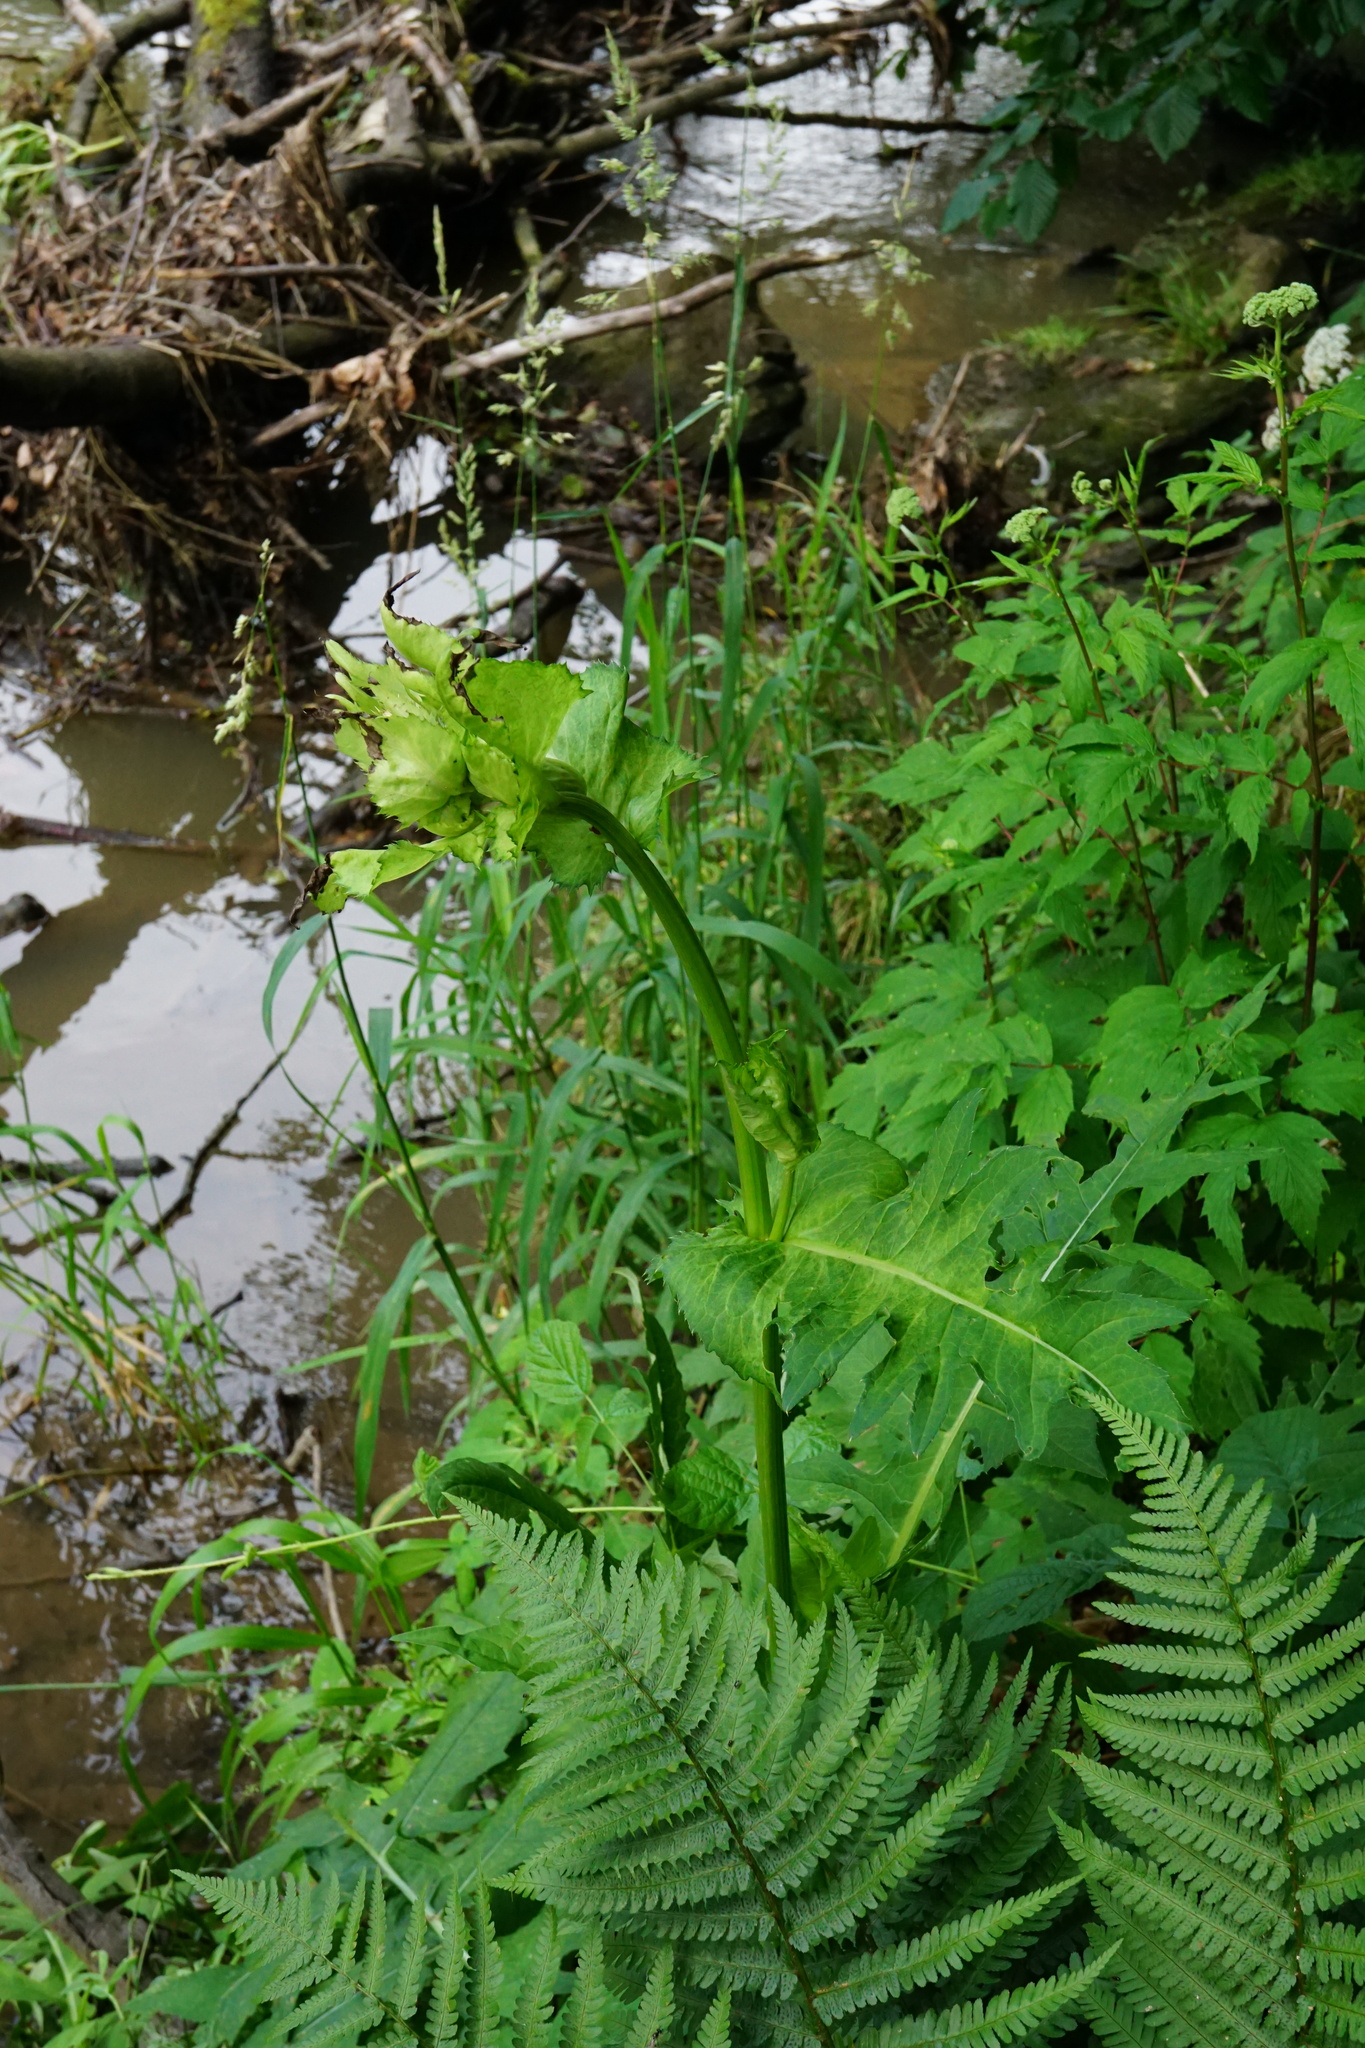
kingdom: Plantae
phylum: Tracheophyta
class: Magnoliopsida
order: Asterales
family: Asteraceae
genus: Cirsium
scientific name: Cirsium oleraceum
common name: Cabbage thistle
